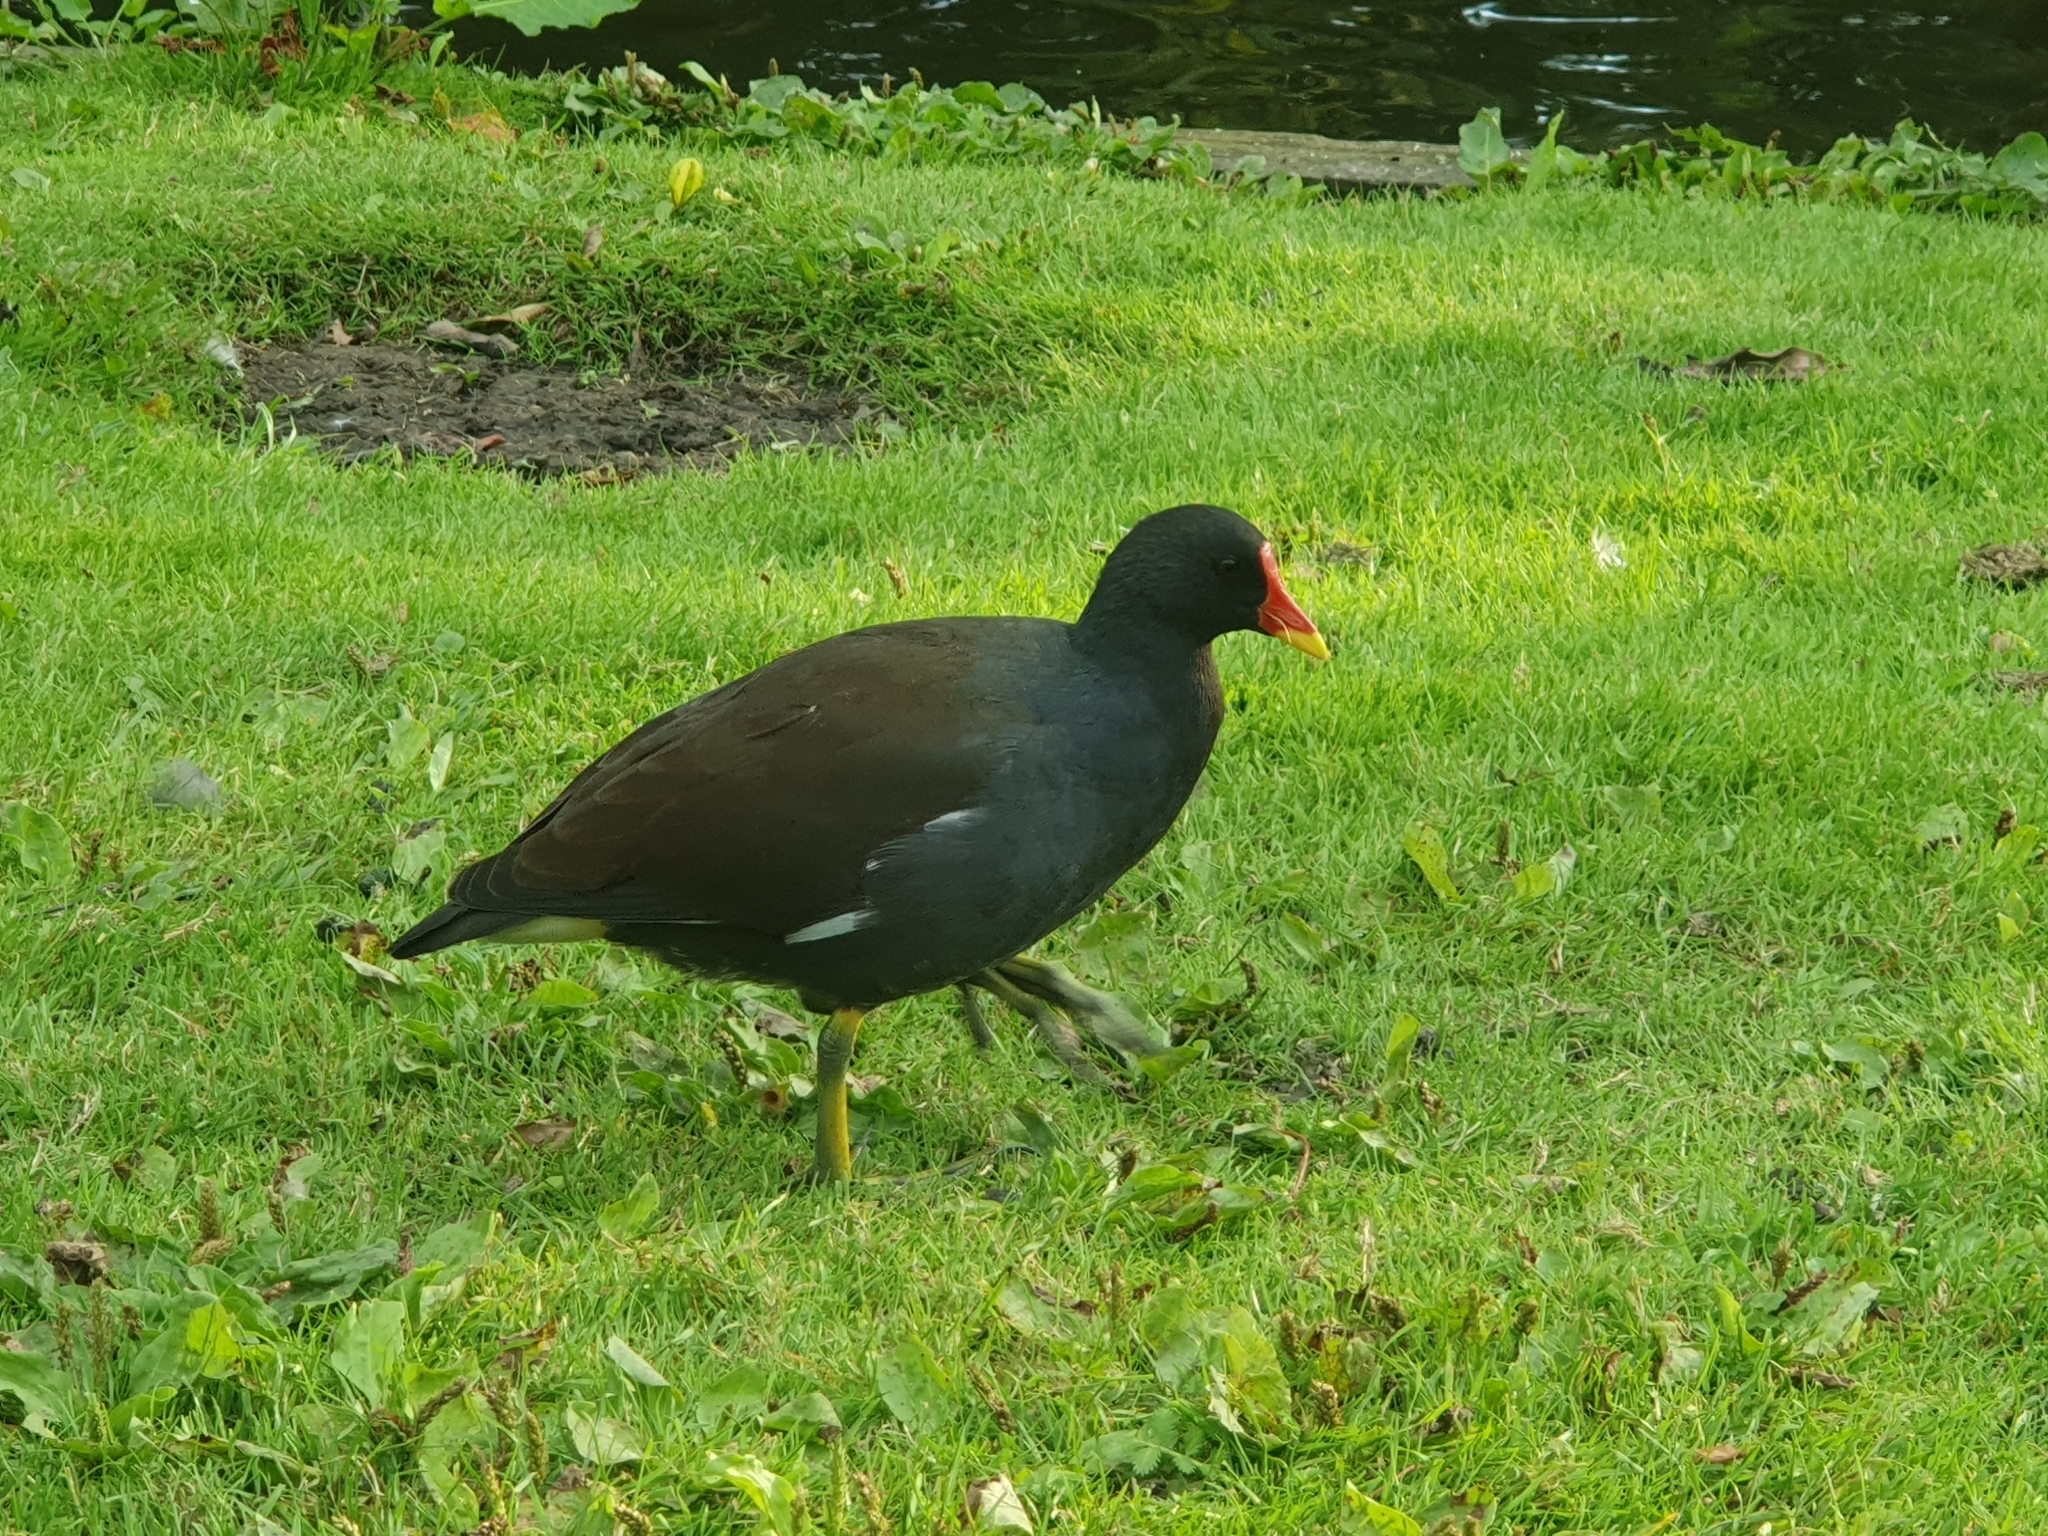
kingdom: Animalia
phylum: Chordata
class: Aves
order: Gruiformes
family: Rallidae
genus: Gallinula
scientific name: Gallinula chloropus
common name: Common moorhen
